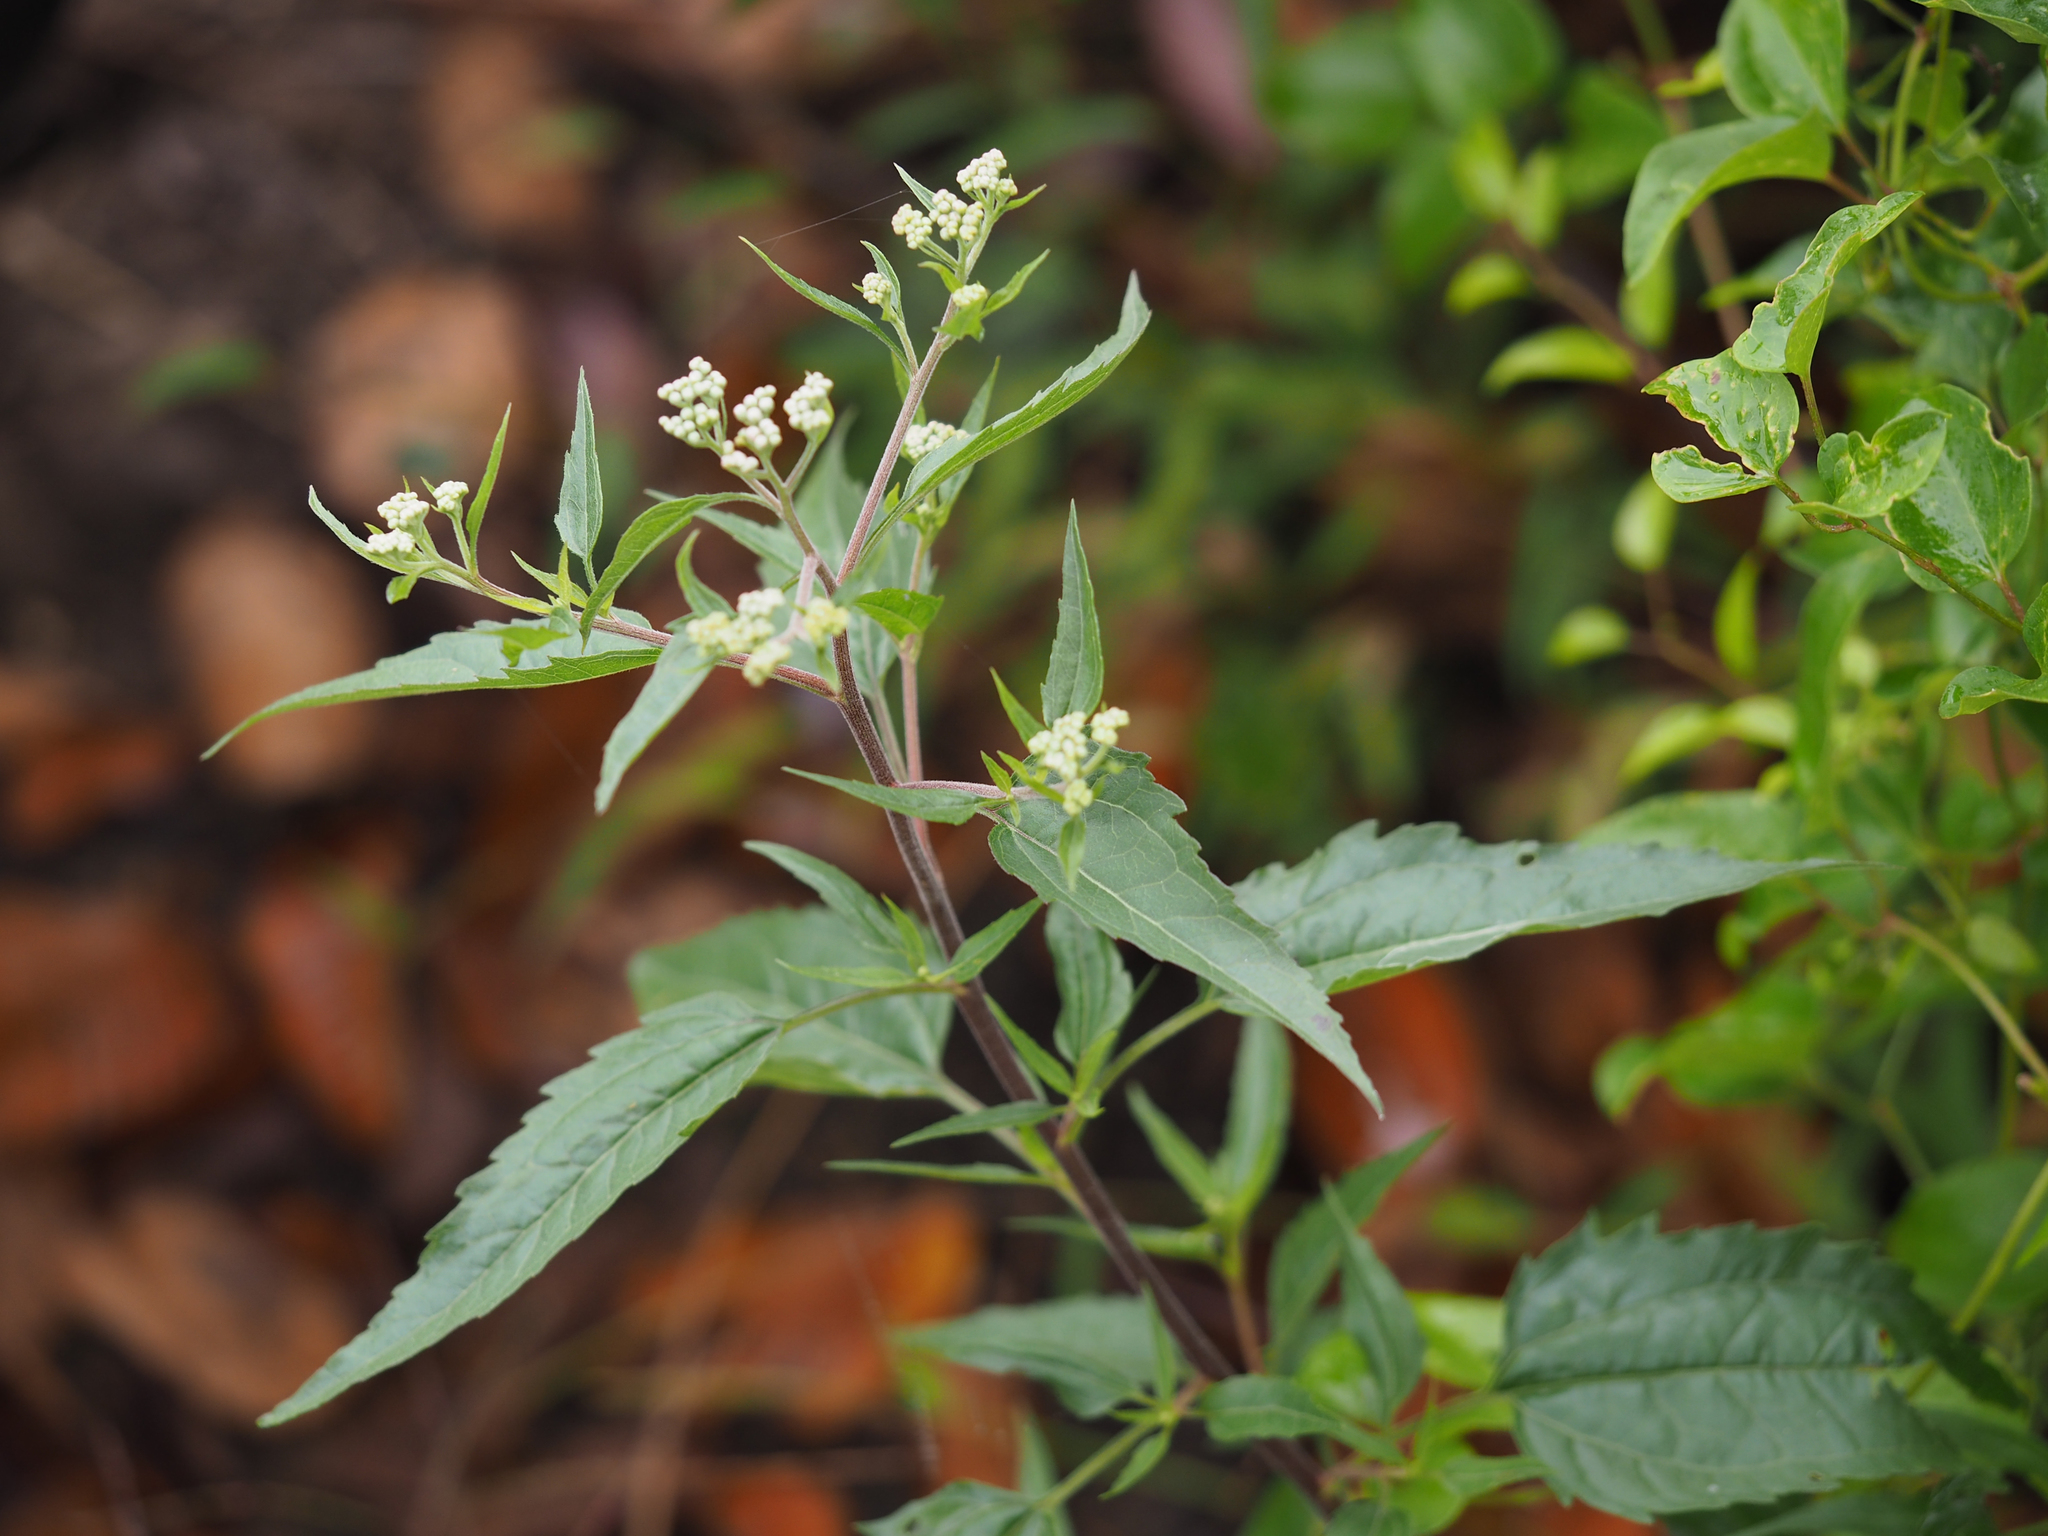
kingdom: Plantae
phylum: Tracheophyta
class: Magnoliopsida
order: Asterales
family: Asteraceae
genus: Eupatorium
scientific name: Eupatorium serotinum
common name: Late boneset
